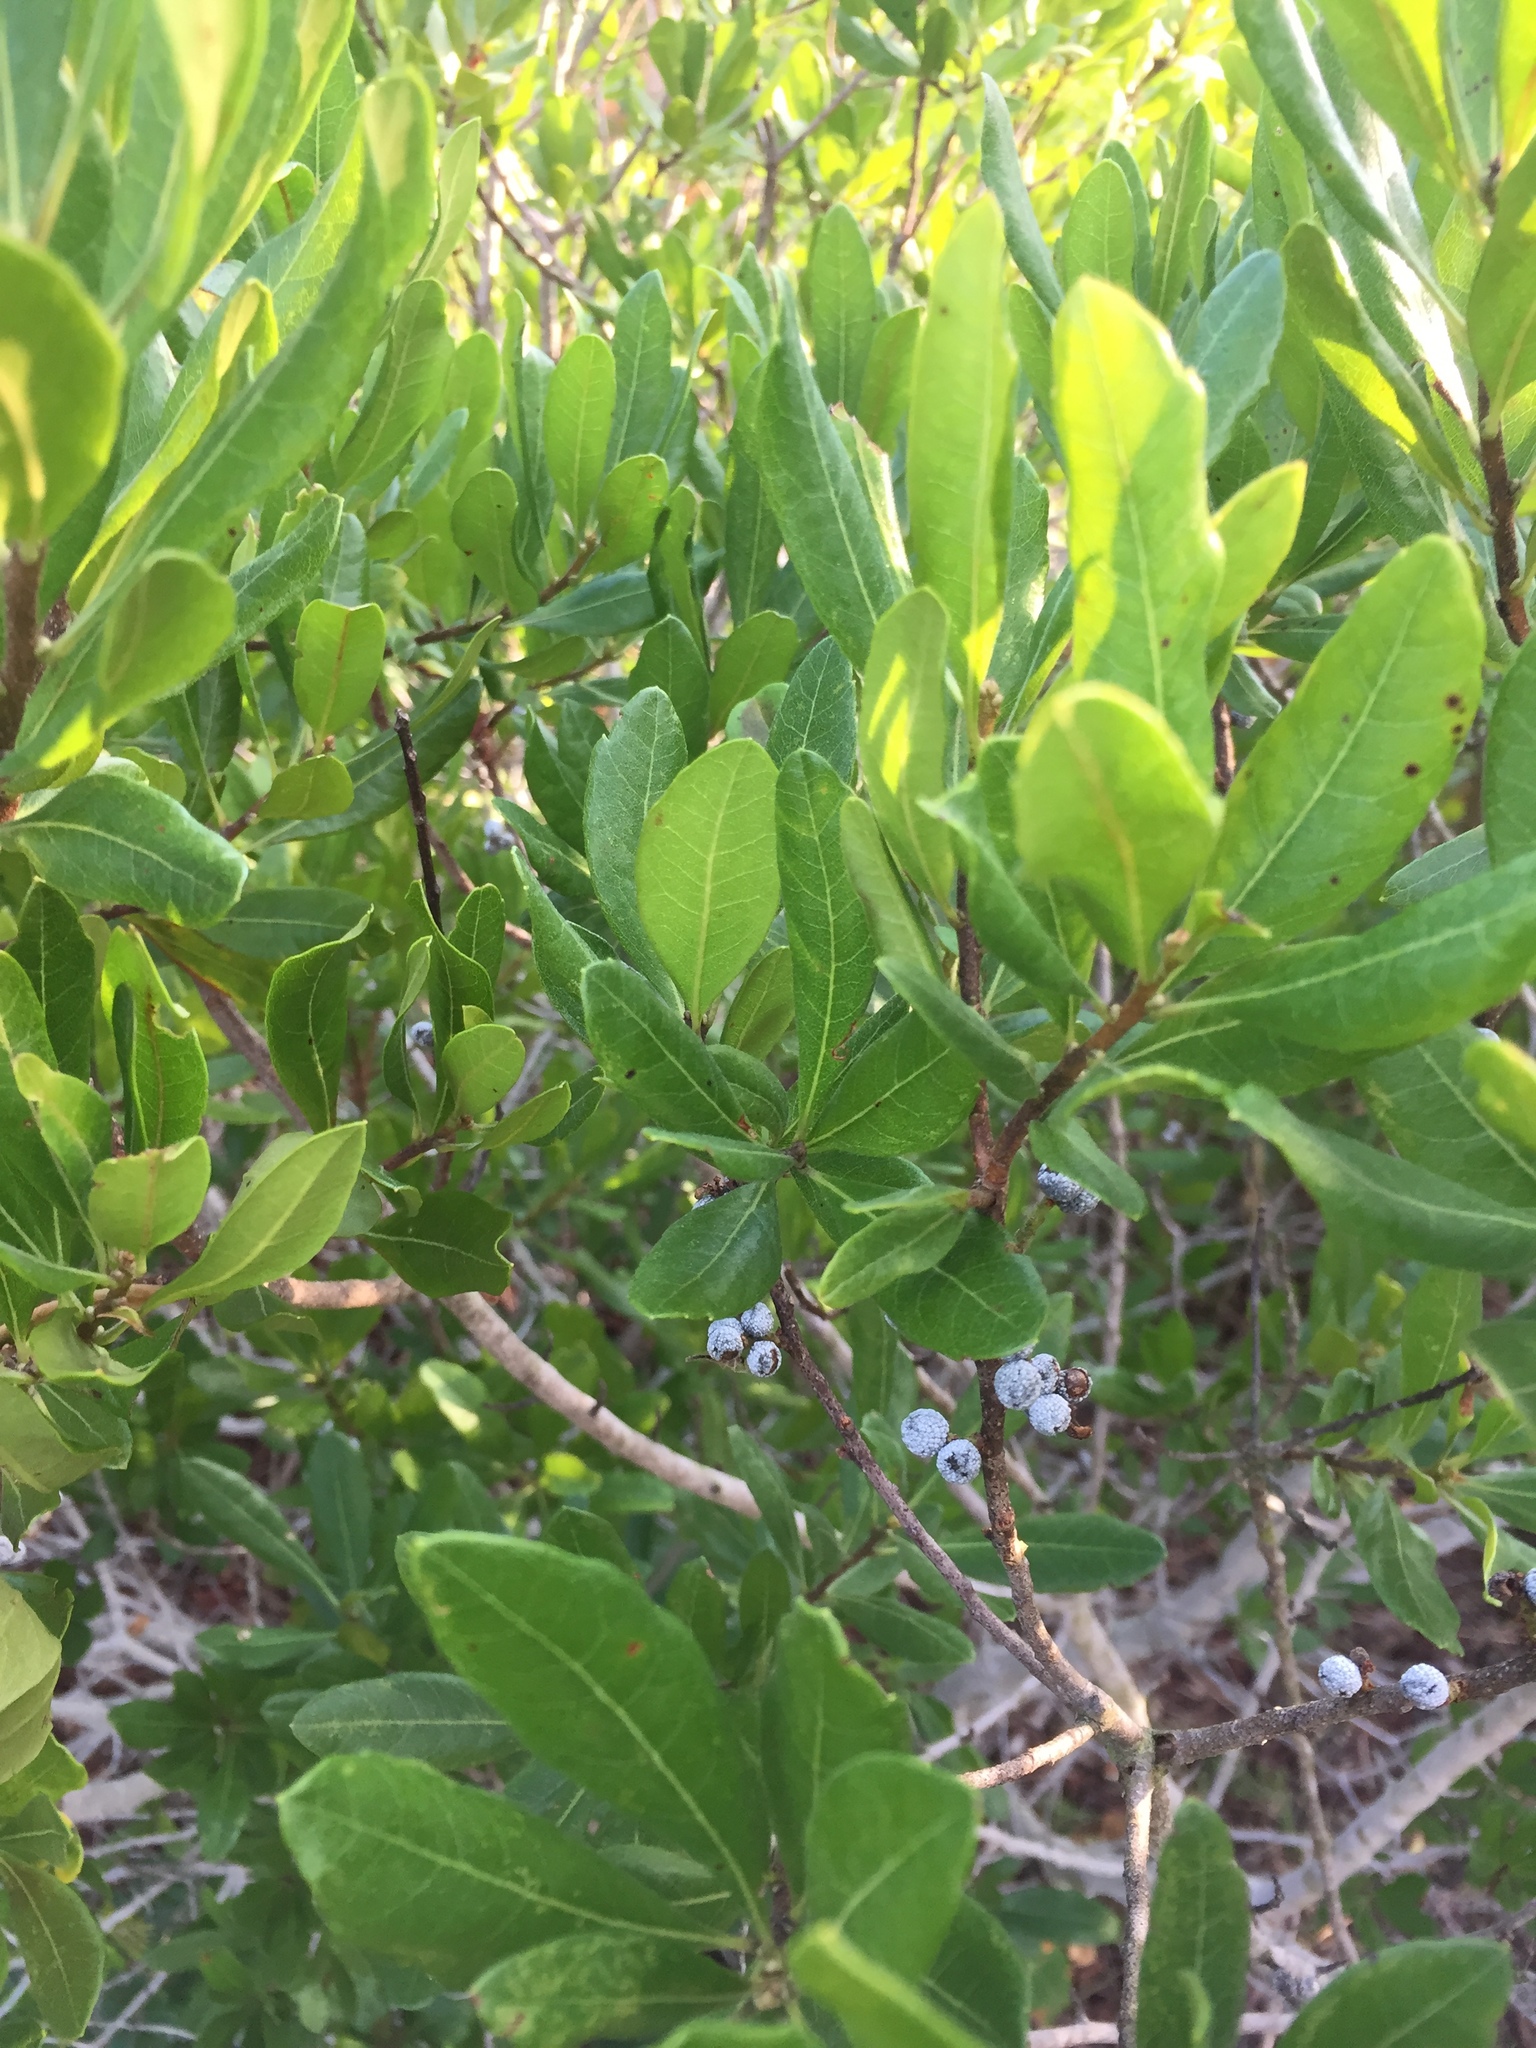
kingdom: Plantae
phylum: Tracheophyta
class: Magnoliopsida
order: Fagales
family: Myricaceae
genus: Morella
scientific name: Morella pensylvanica
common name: Northern bayberry
